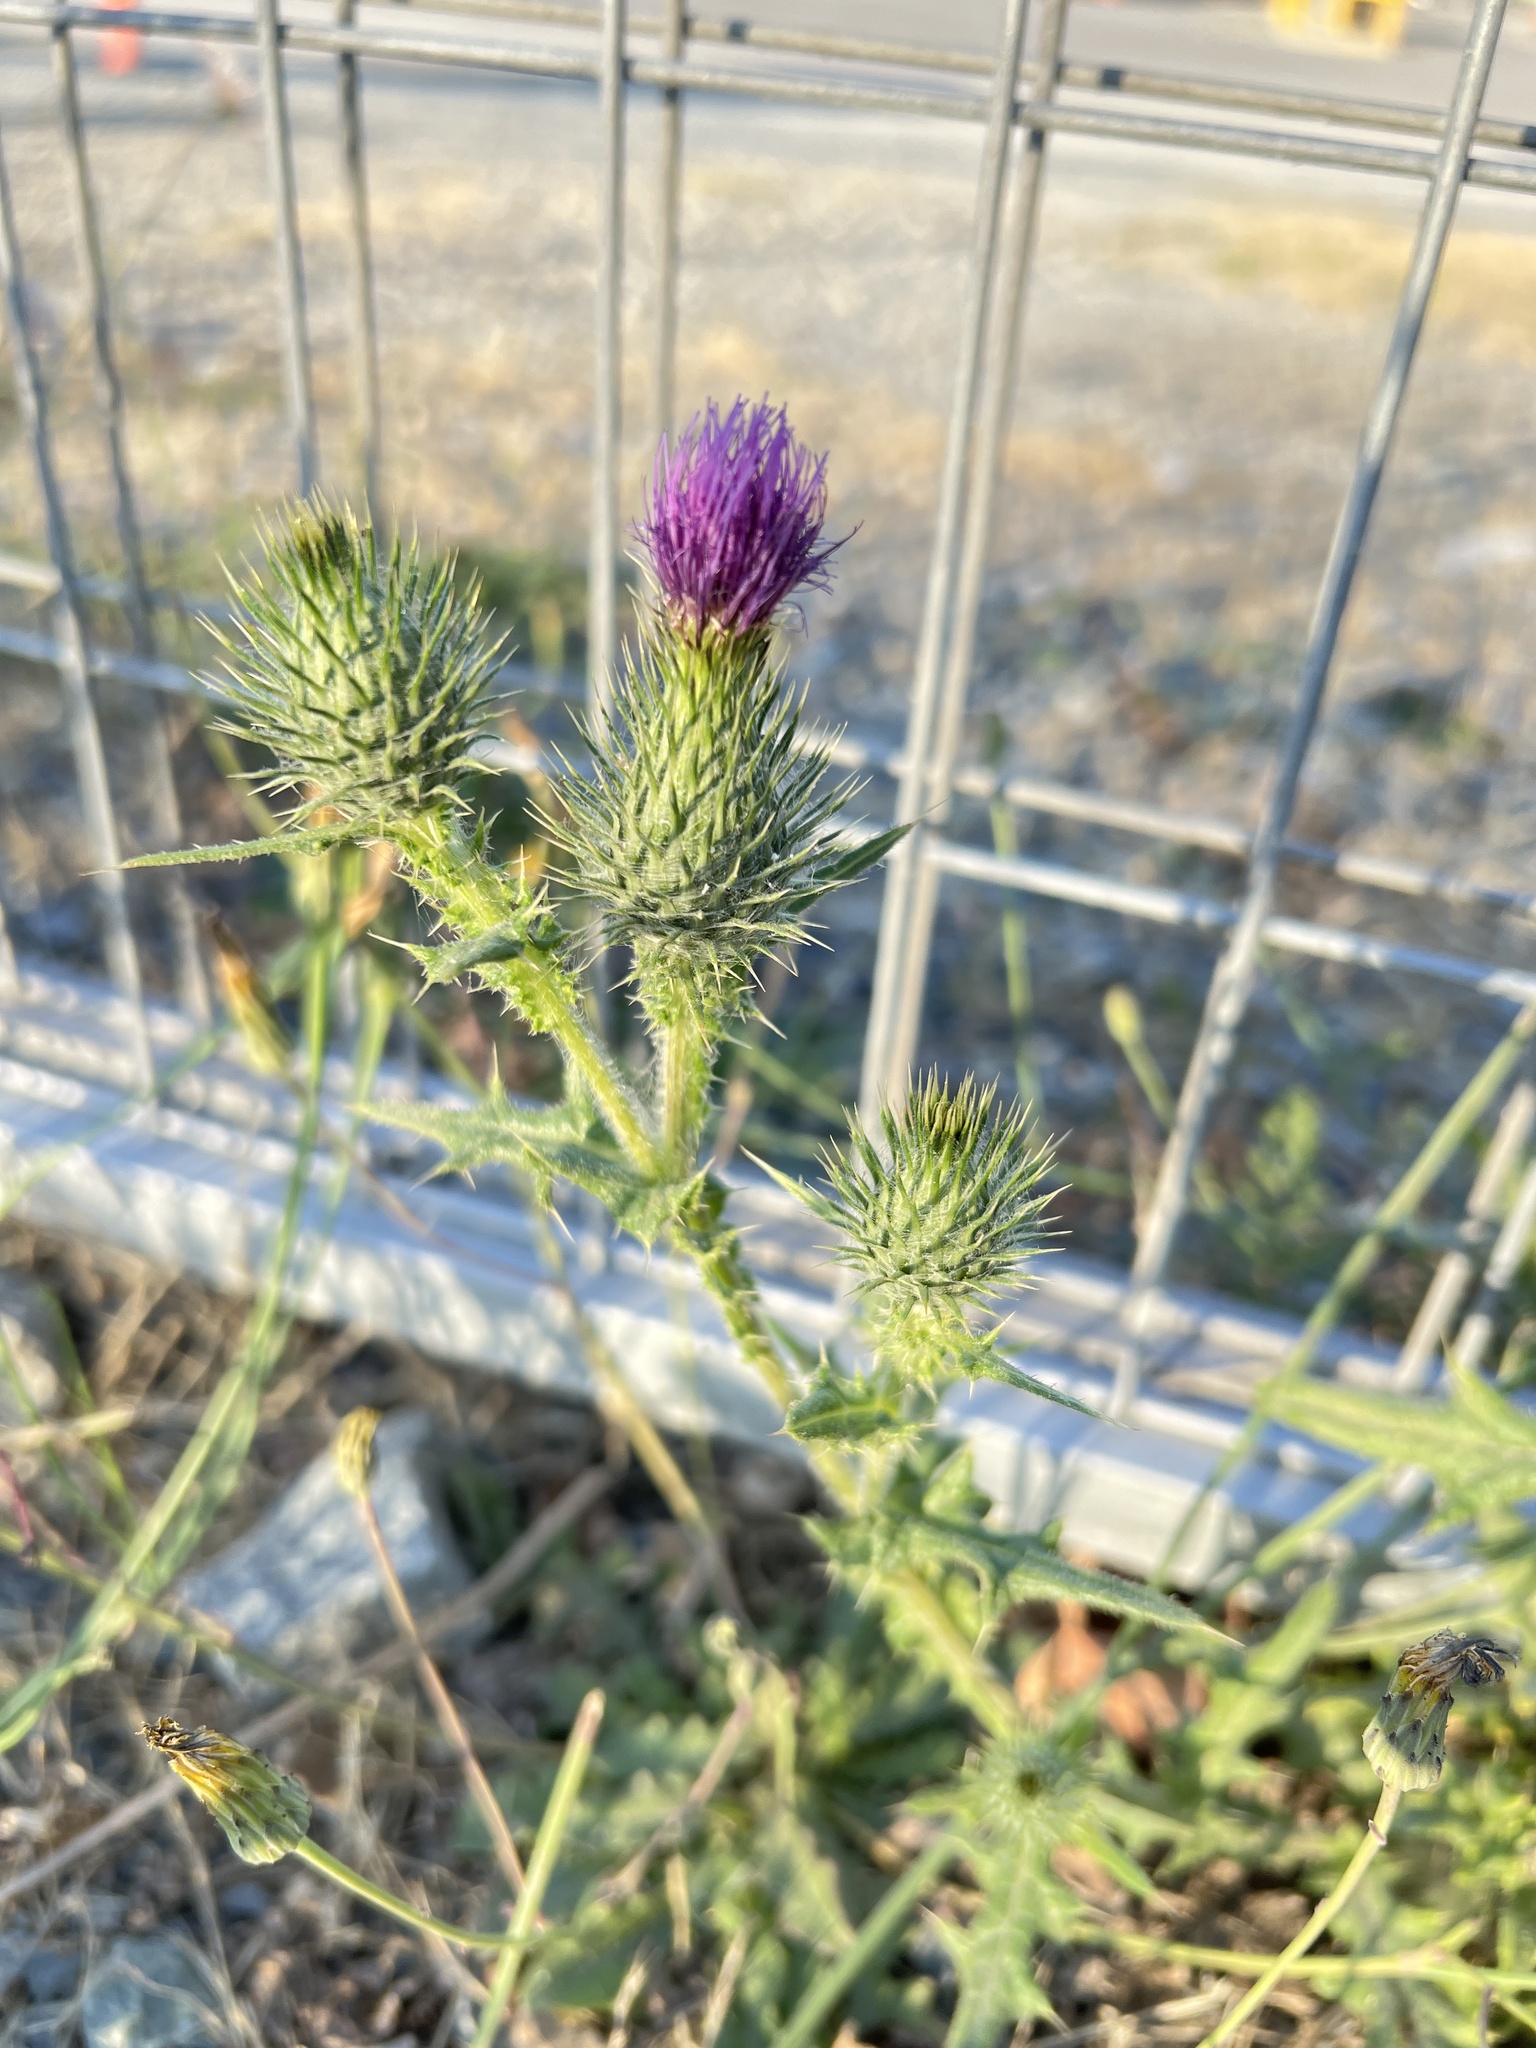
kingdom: Plantae
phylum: Tracheophyta
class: Magnoliopsida
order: Asterales
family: Asteraceae
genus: Cirsium
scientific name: Cirsium vulgare
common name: Bull thistle
